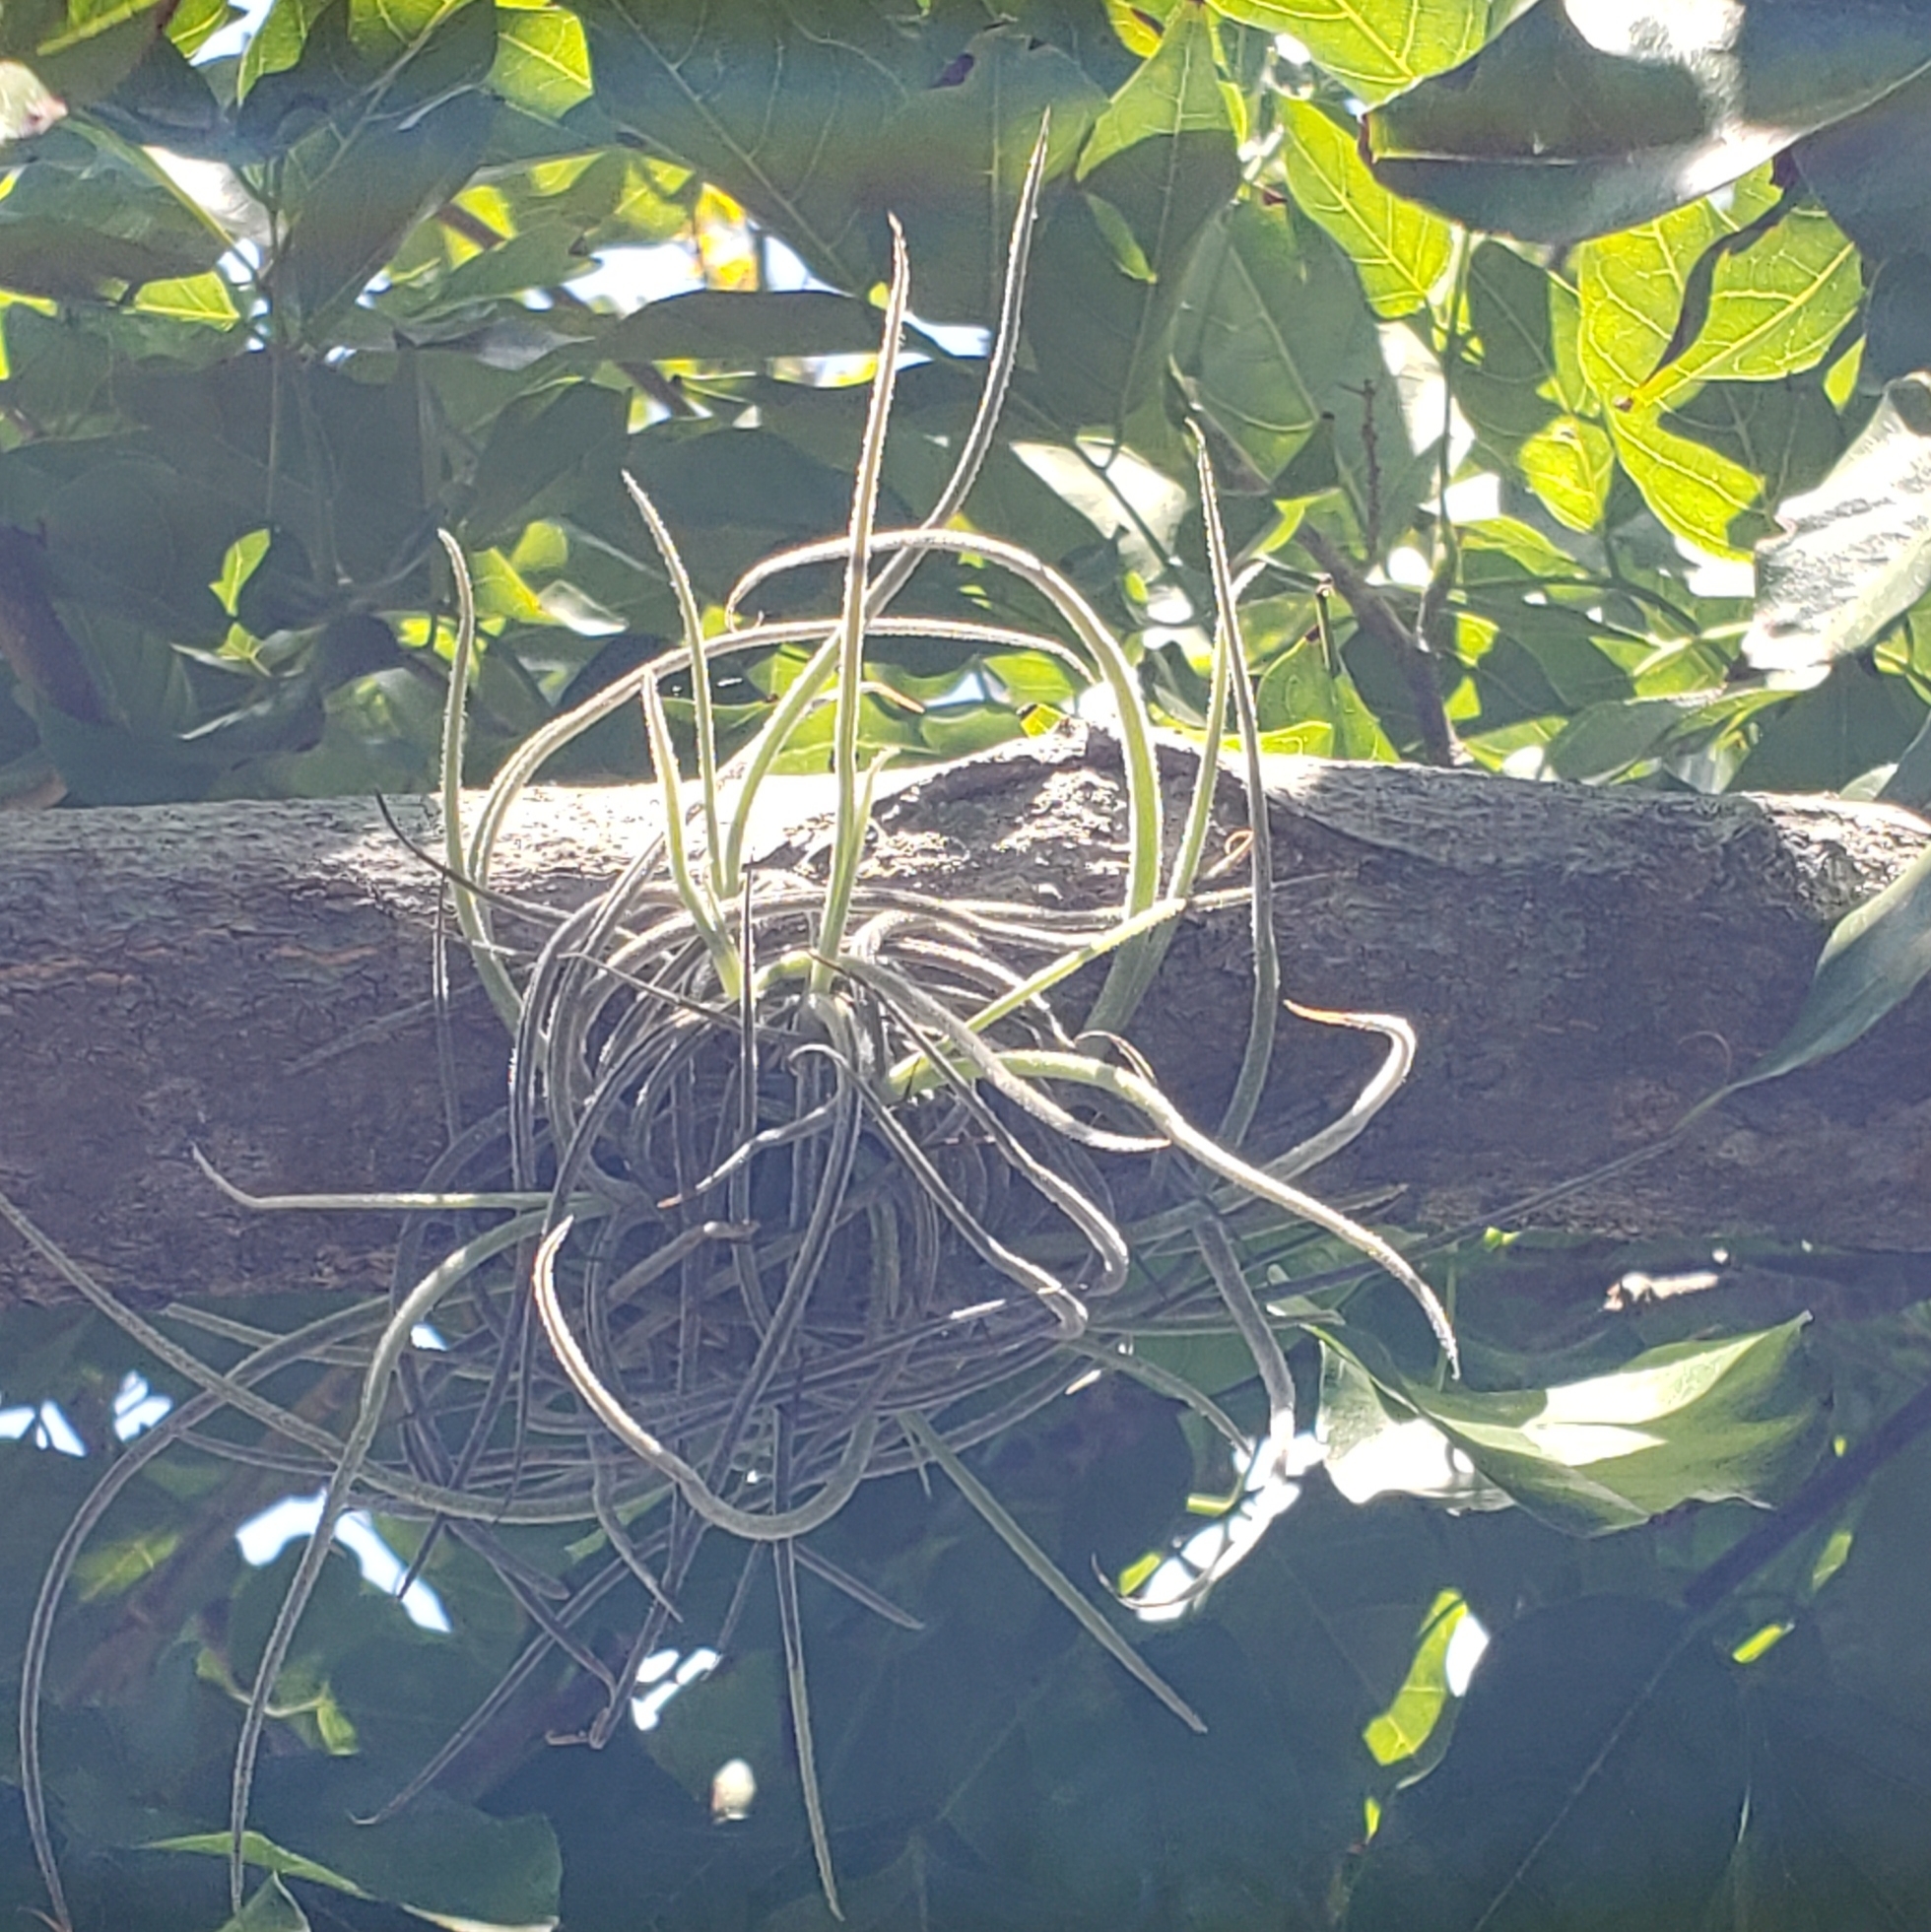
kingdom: Plantae
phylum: Tracheophyta
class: Liliopsida
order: Poales
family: Bromeliaceae
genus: Tillandsia
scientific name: Tillandsia recurvata
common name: Small ballmoss
